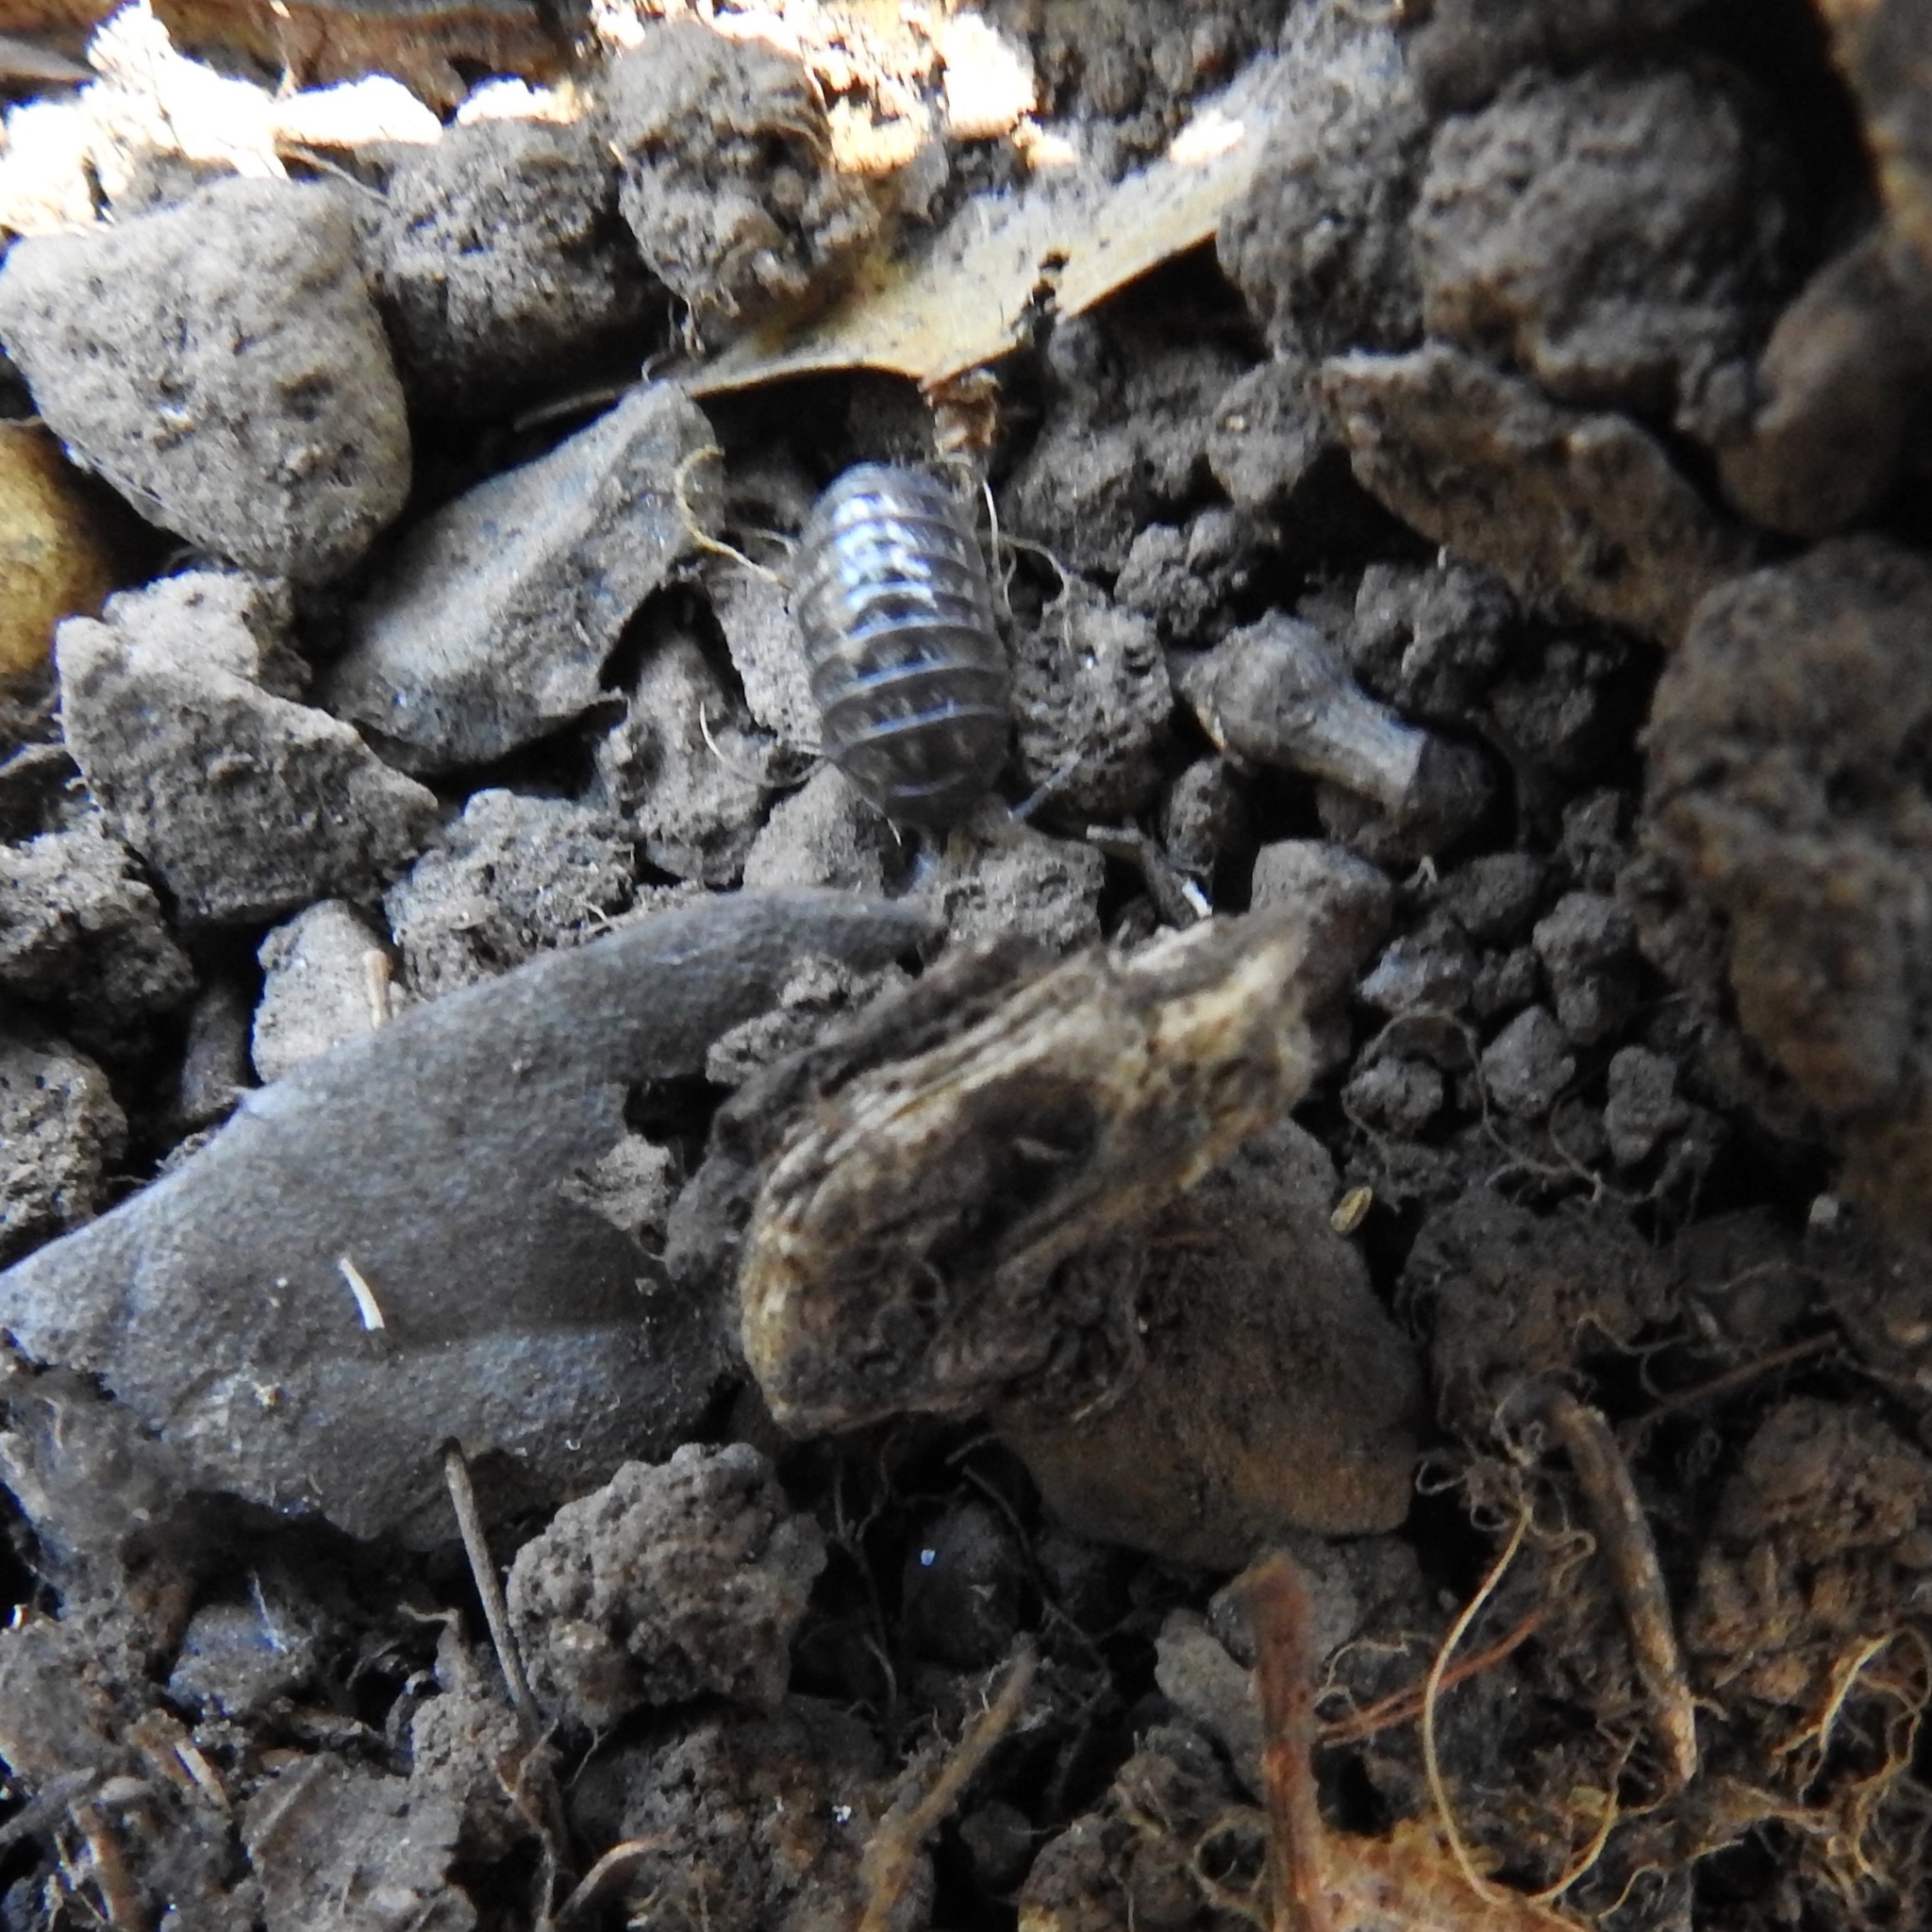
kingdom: Animalia
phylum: Arthropoda
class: Malacostraca
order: Isopoda
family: Armadillidiidae
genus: Armadillidium
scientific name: Armadillidium vulgare
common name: Common pill woodlouse
